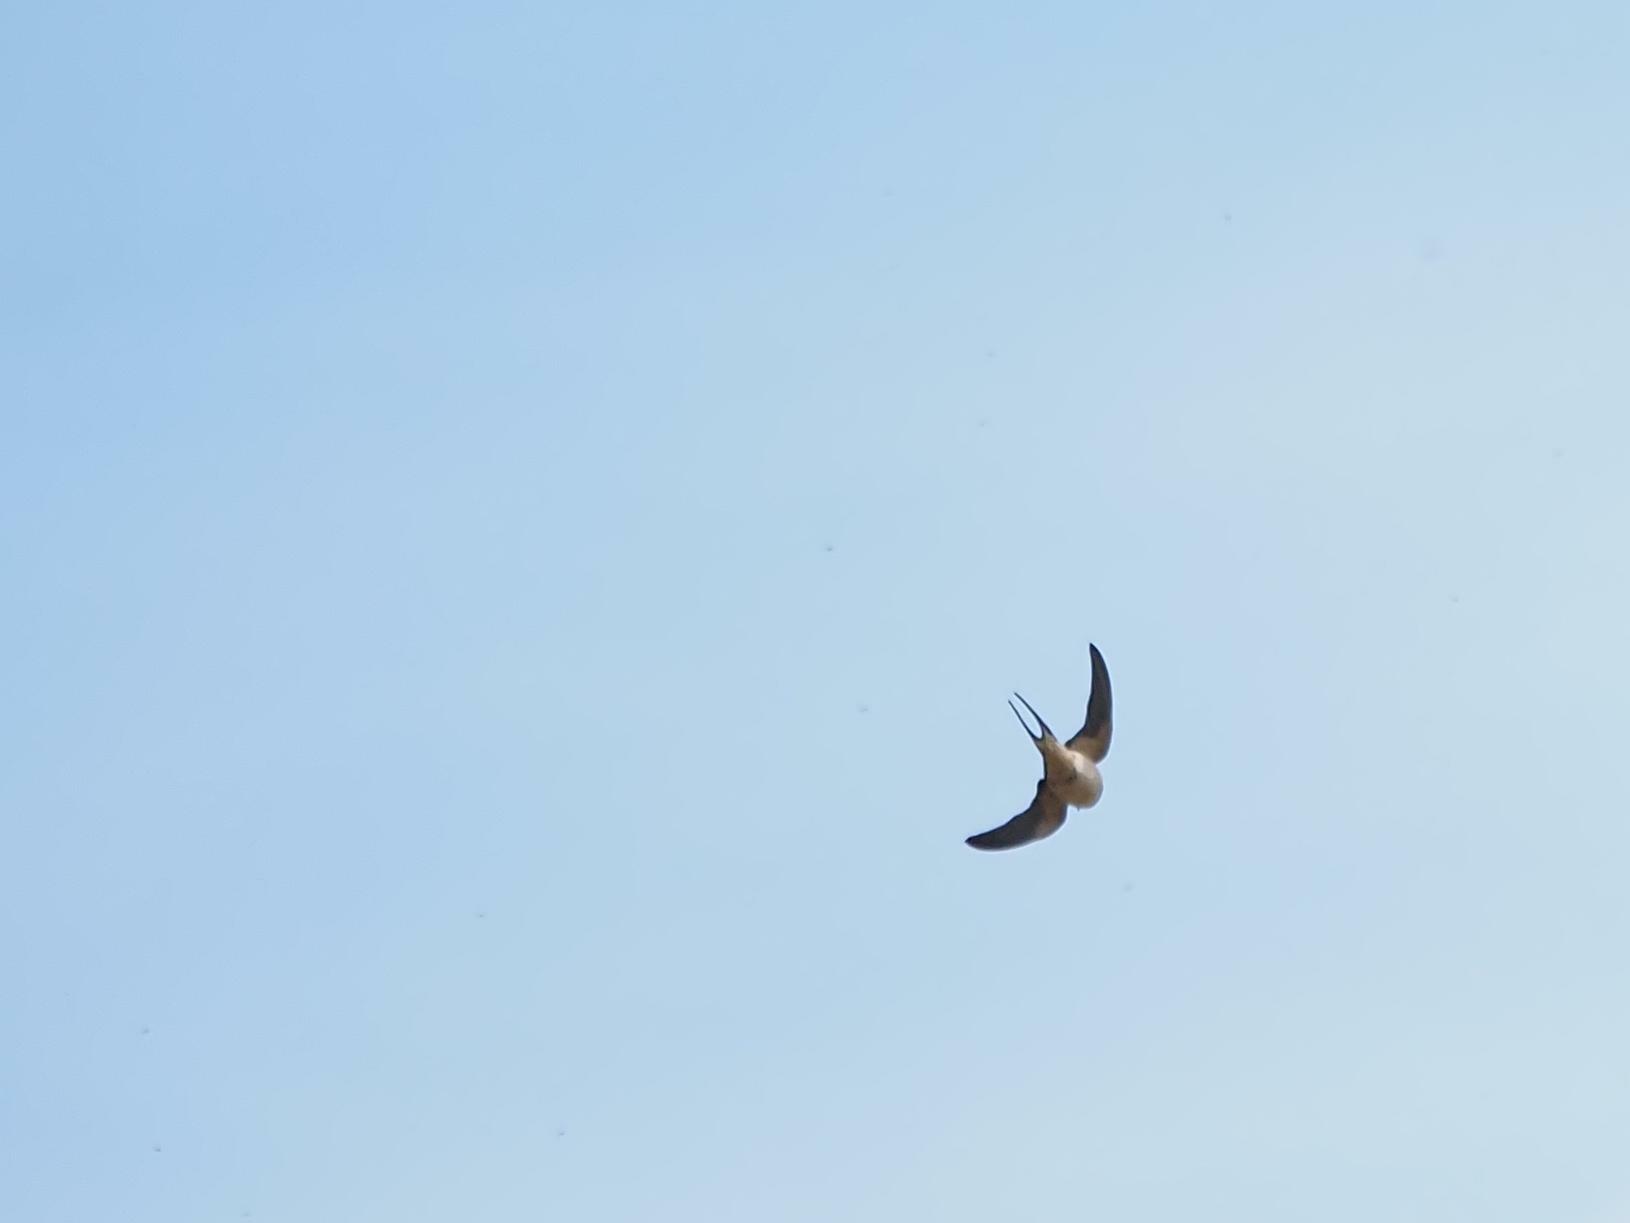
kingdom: Animalia
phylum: Chordata
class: Aves
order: Passeriformes
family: Hirundinidae
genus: Hirundo
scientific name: Hirundo rustica
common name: Barn swallow
